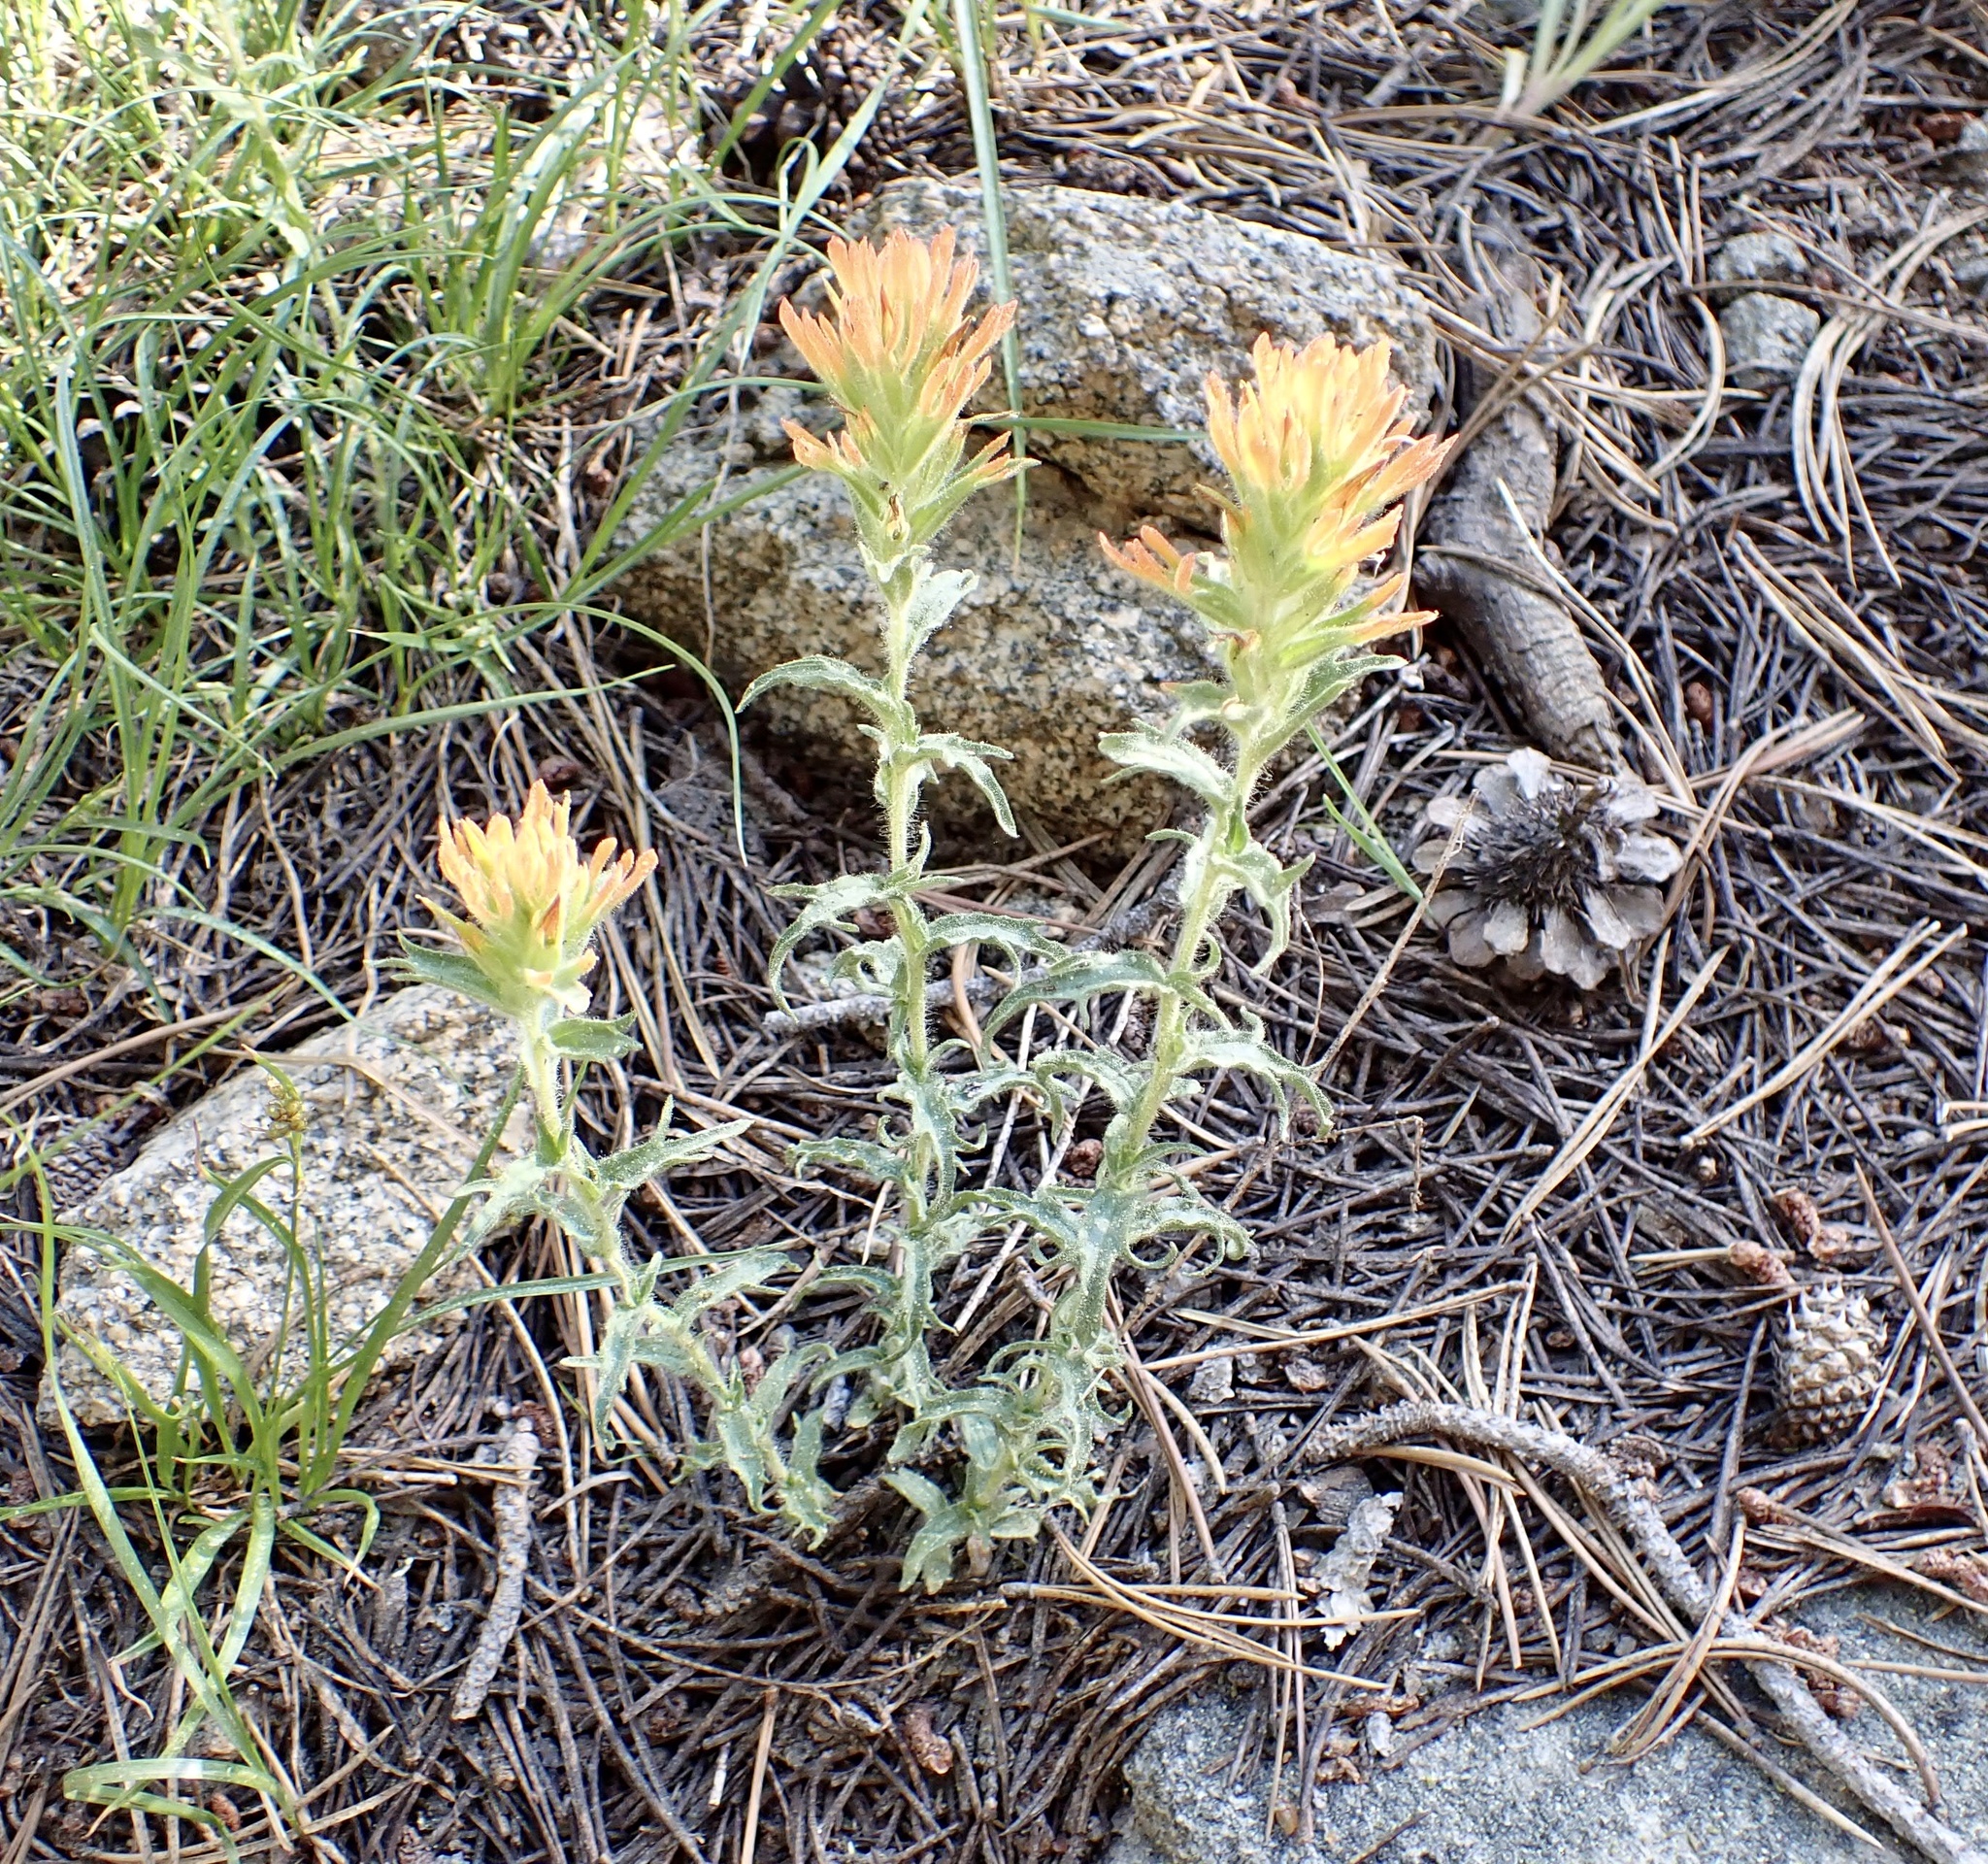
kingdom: Plantae
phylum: Tracheophyta
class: Magnoliopsida
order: Lamiales
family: Orobanchaceae
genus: Castilleja
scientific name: Castilleja applegatei
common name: Wavy-leaf paintbrush
